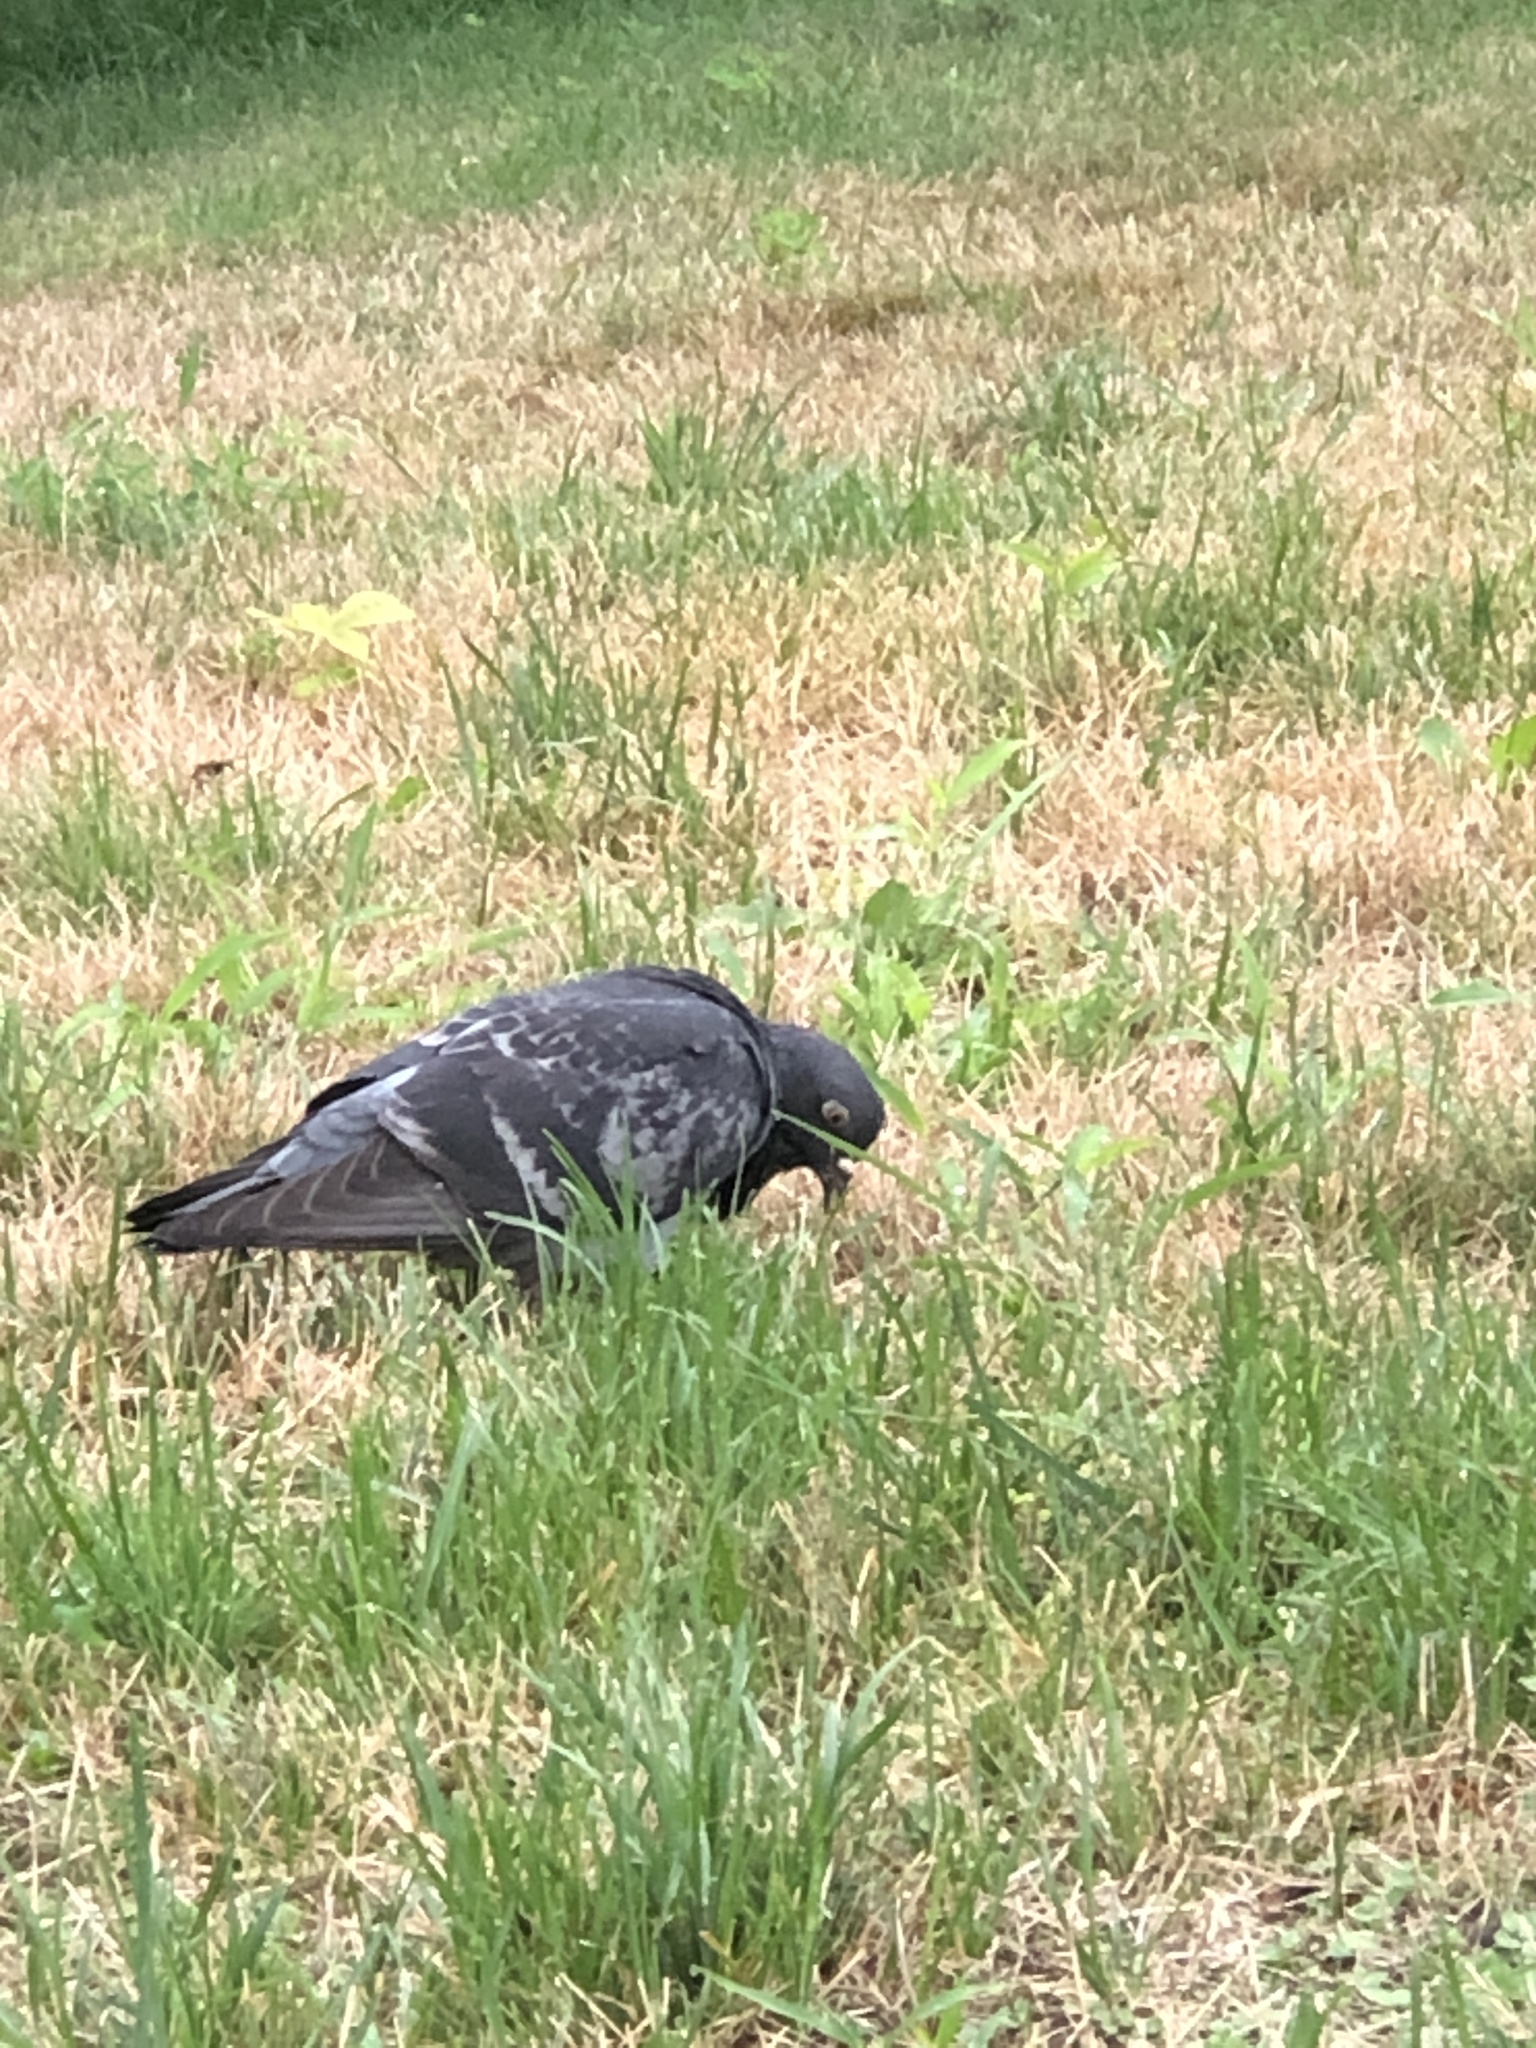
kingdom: Animalia
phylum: Chordata
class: Aves
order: Columbiformes
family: Columbidae
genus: Columba
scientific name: Columba livia
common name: Rock pigeon
